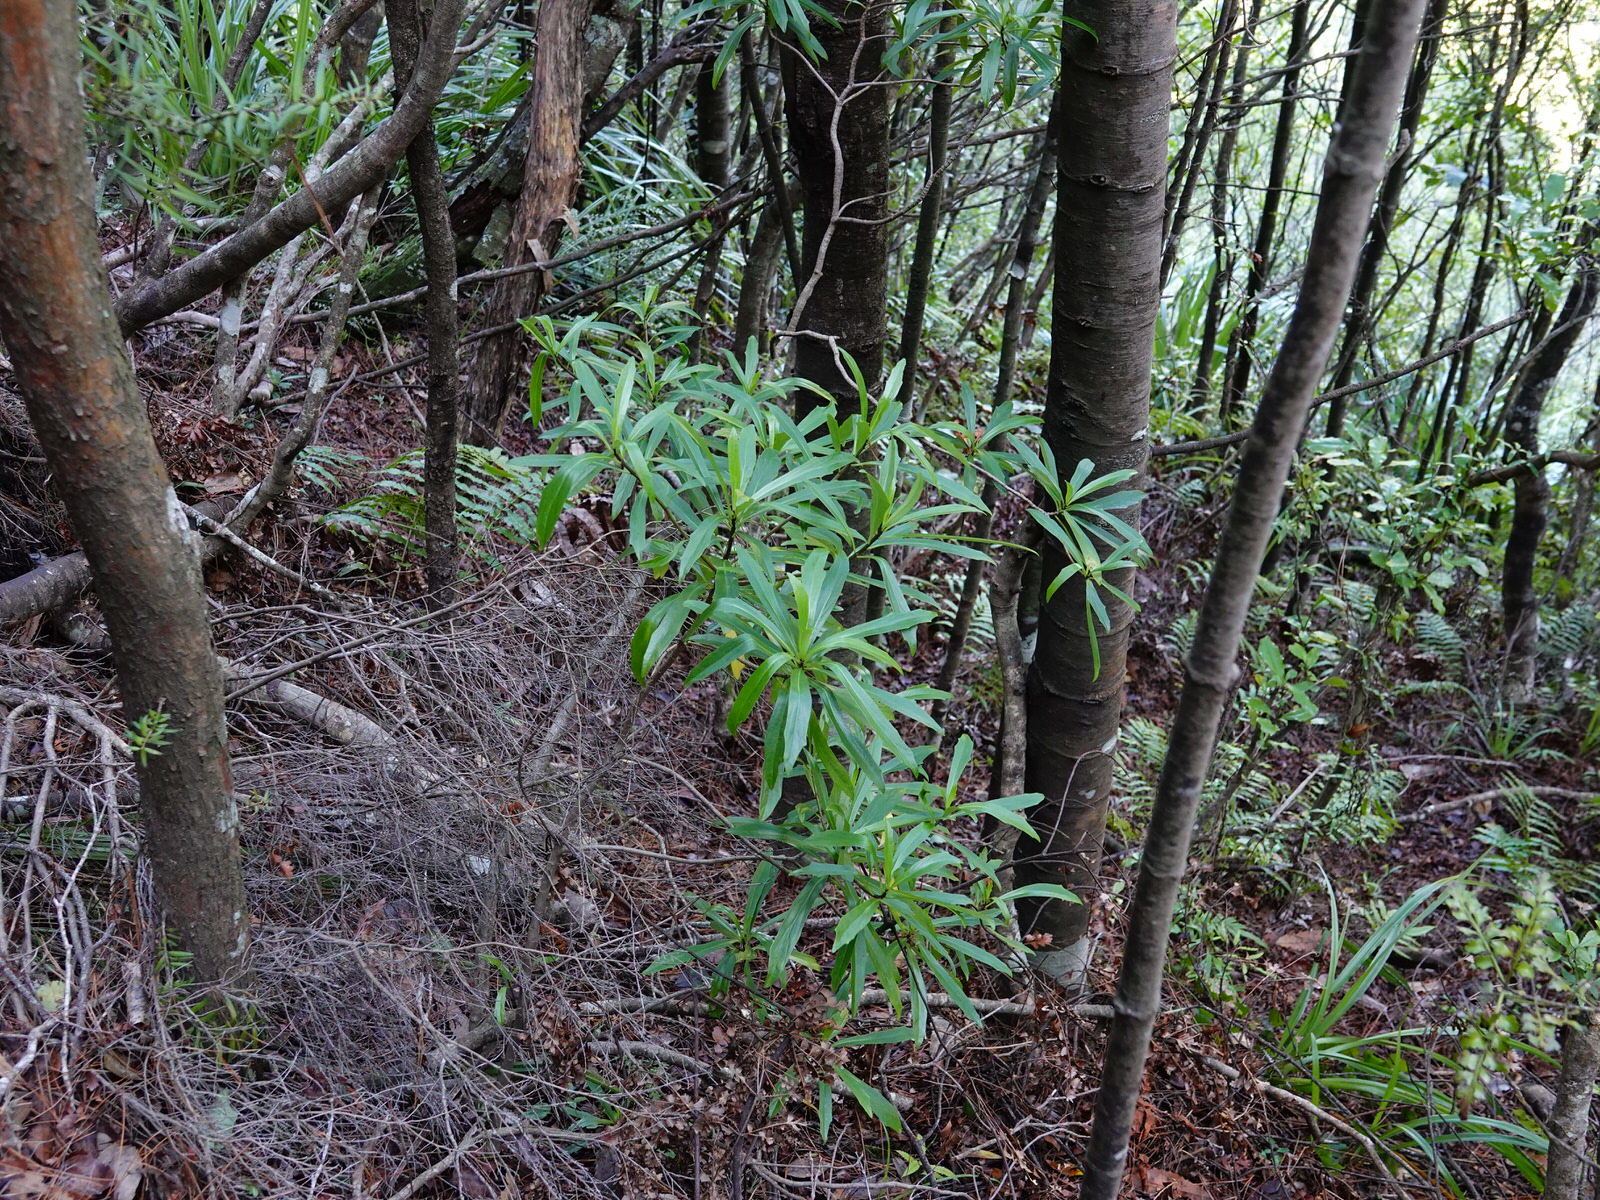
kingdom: Plantae
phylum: Tracheophyta
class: Magnoliopsida
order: Asterales
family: Asteraceae
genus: Brachyglottis
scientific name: Brachyglottis kirkii
